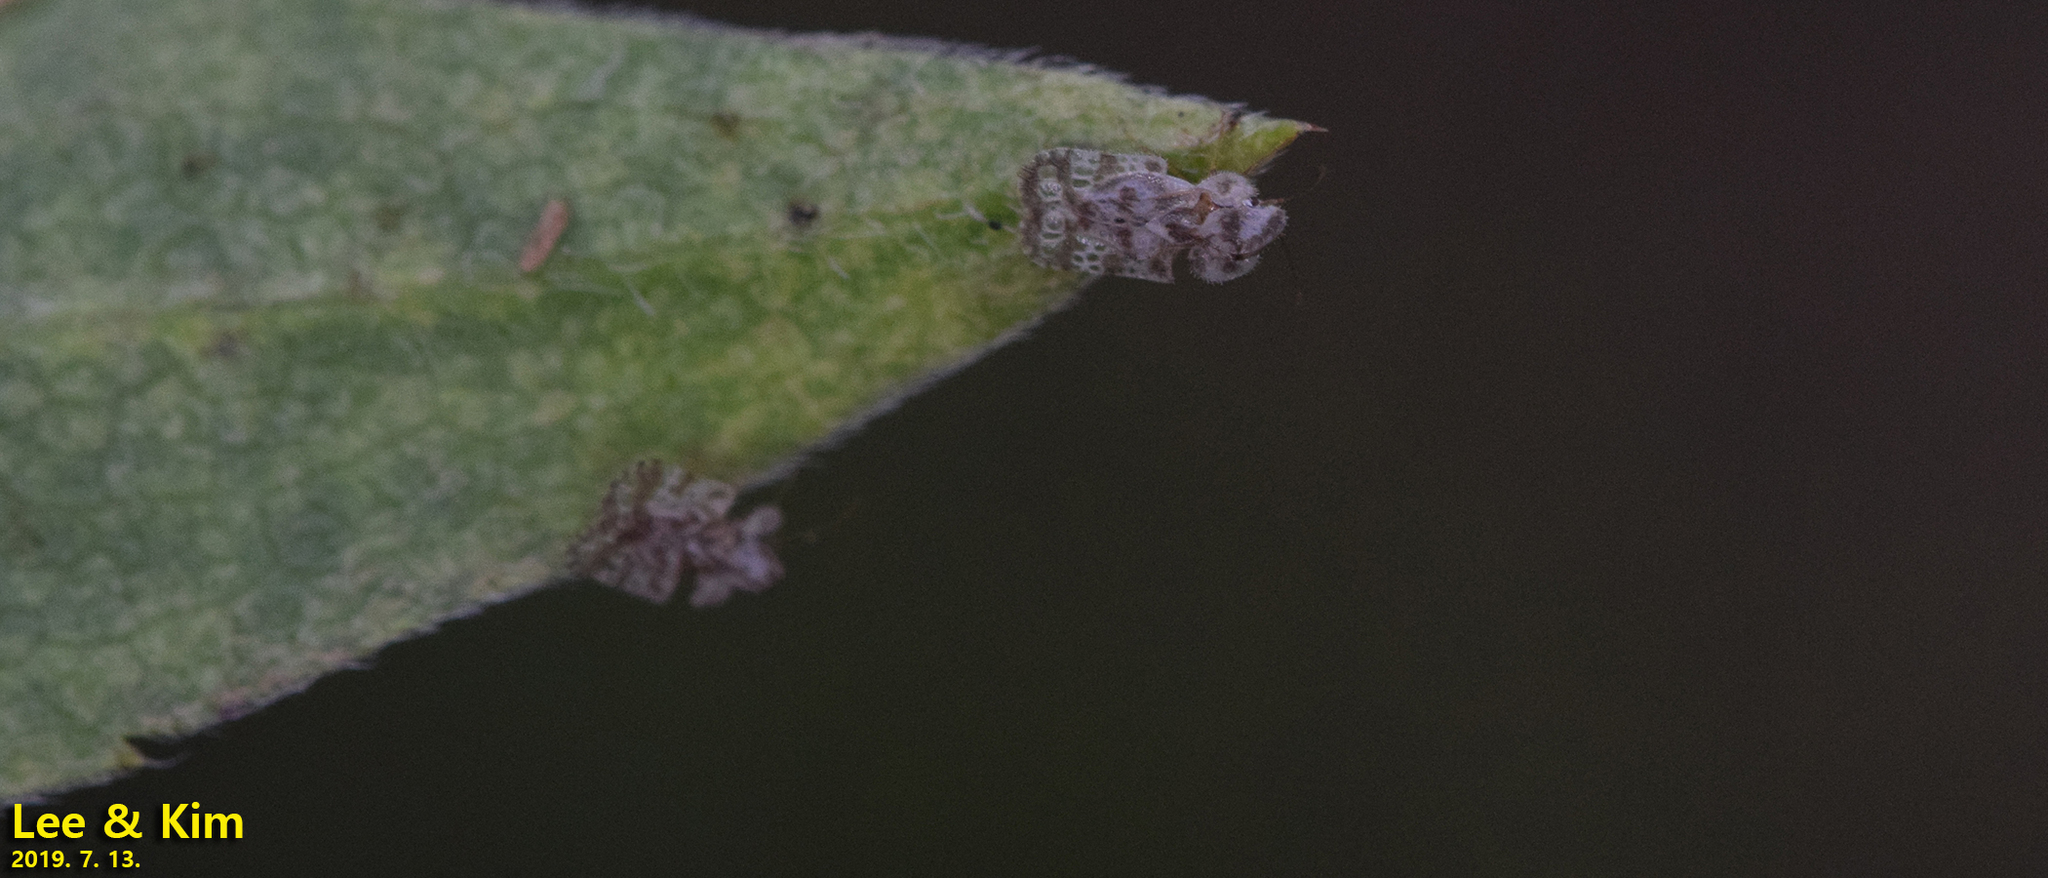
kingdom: Animalia
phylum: Arthropoda
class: Insecta
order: Hemiptera
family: Tingidae
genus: Corythucha
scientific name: Corythucha marmorata
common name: Chrysanthemum lace bug
